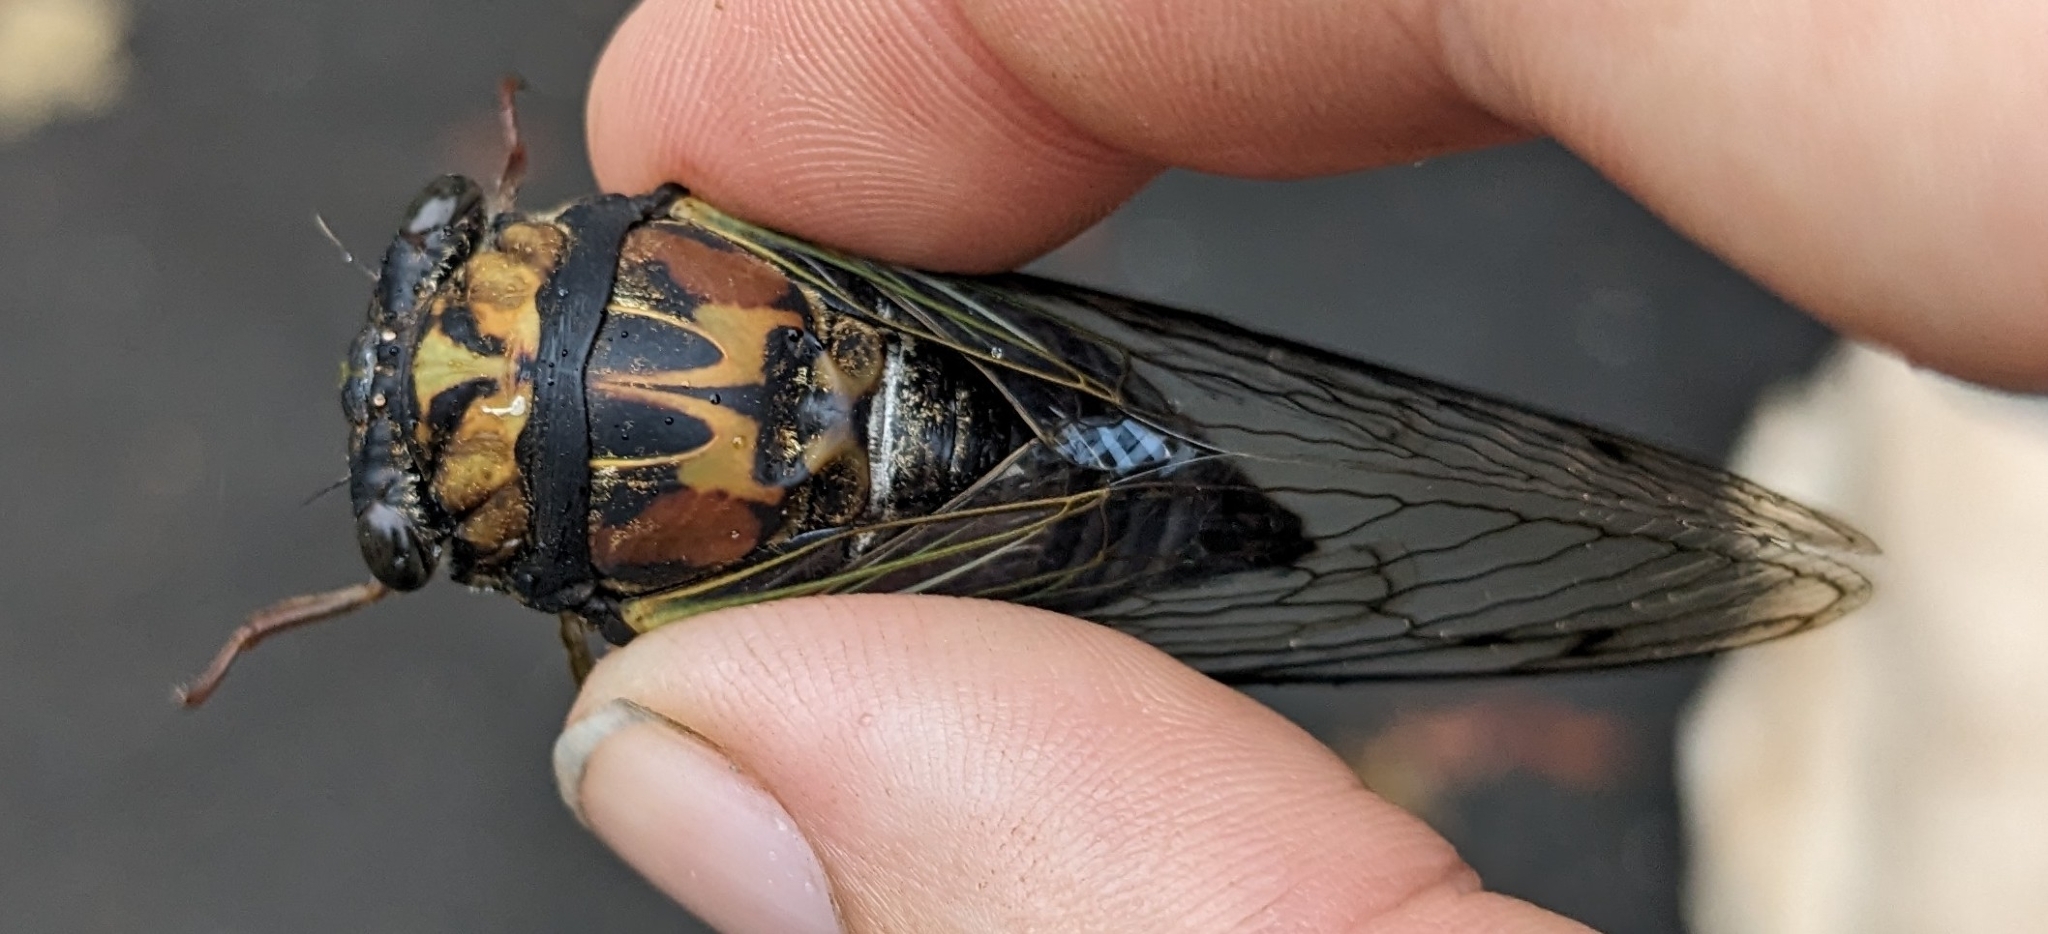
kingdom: Animalia
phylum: Arthropoda
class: Insecta
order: Hemiptera
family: Cicadidae
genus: Neotibicen
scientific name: Neotibicen lyricen
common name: Lyric cicada
